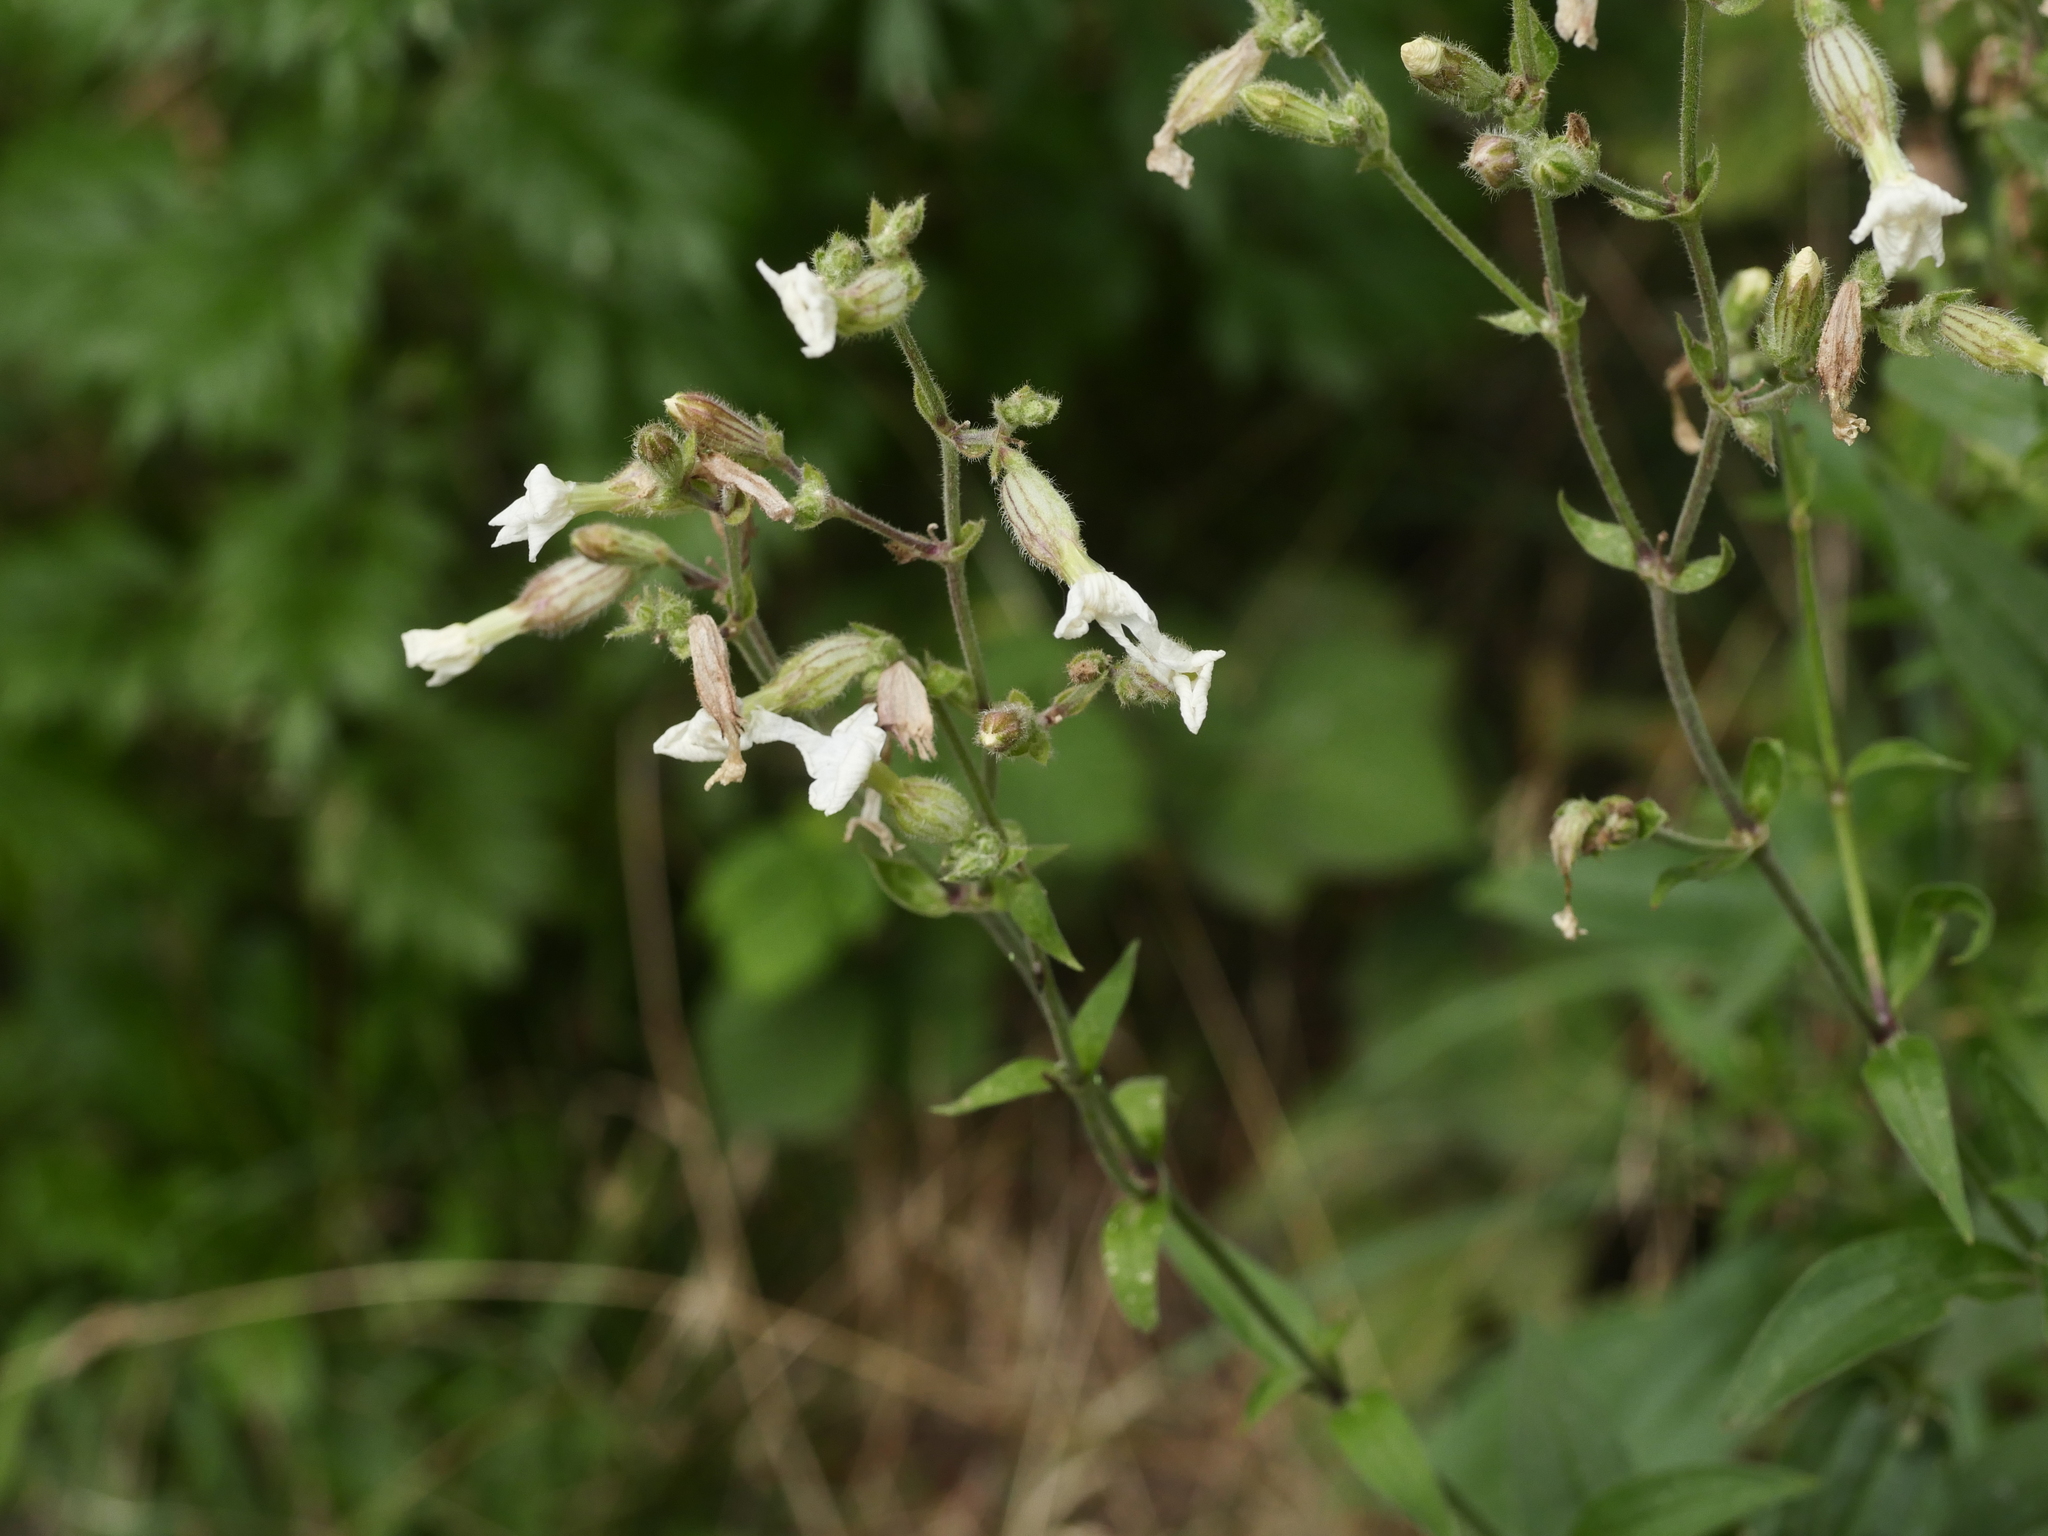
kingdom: Plantae
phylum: Tracheophyta
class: Magnoliopsida
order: Caryophyllales
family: Caryophyllaceae
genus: Silene
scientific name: Silene latifolia
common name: White campion
